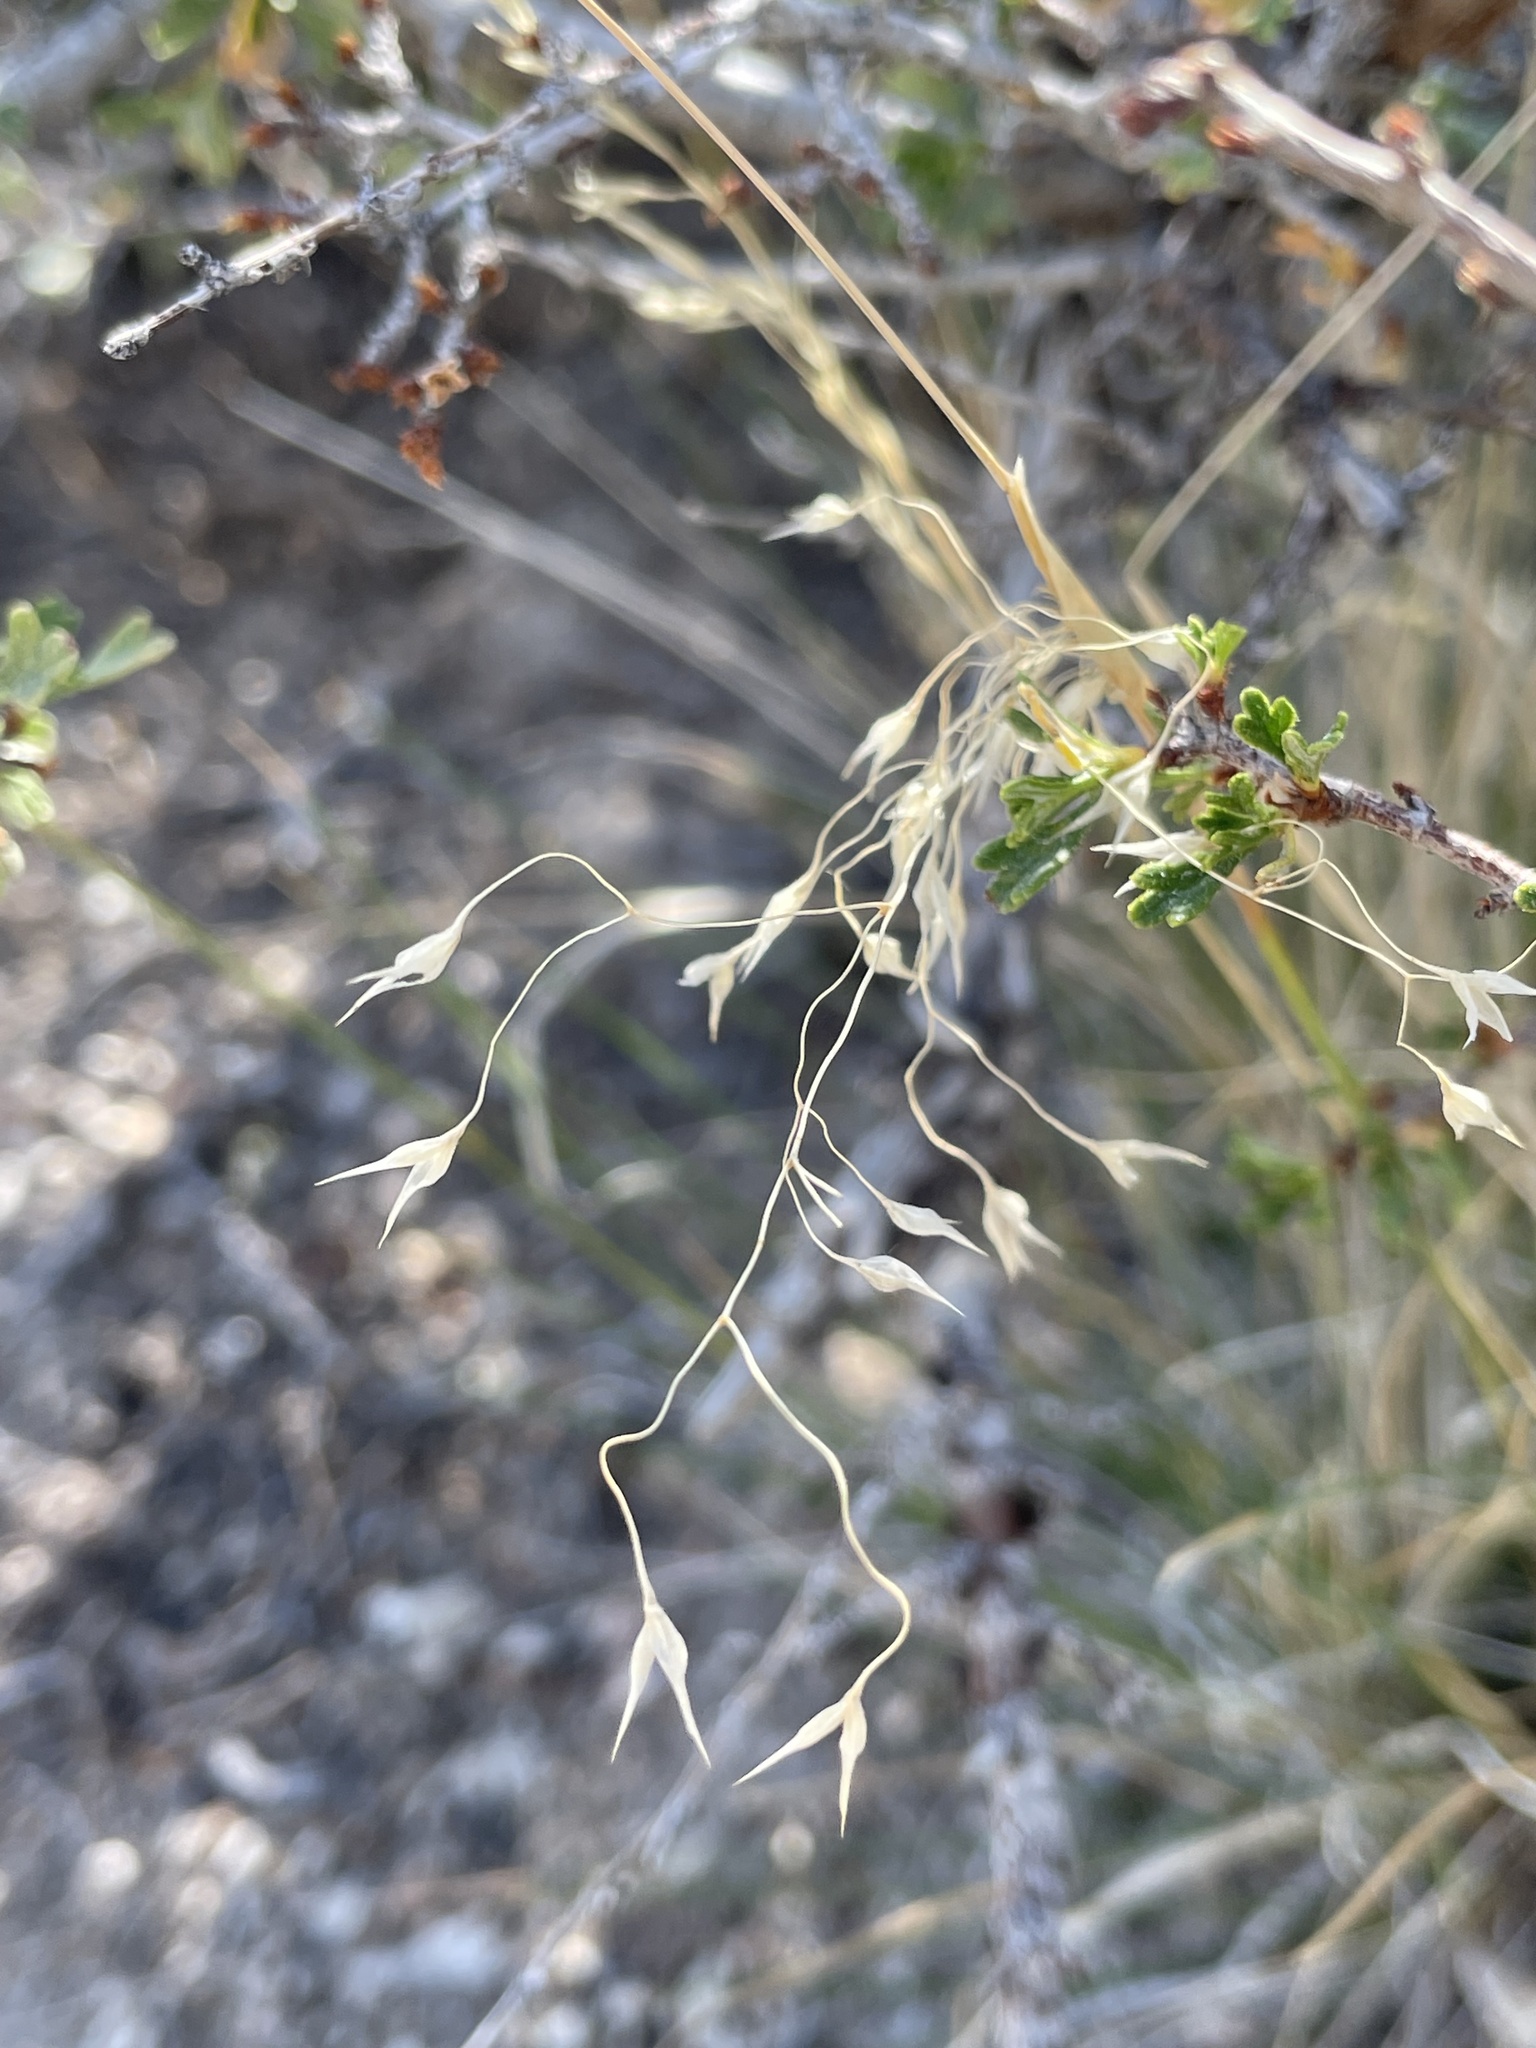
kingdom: Plantae
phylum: Tracheophyta
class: Liliopsida
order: Poales
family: Poaceae
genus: Eriocoma
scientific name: Eriocoma hymenoides
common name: Indian mountain ricegrass
